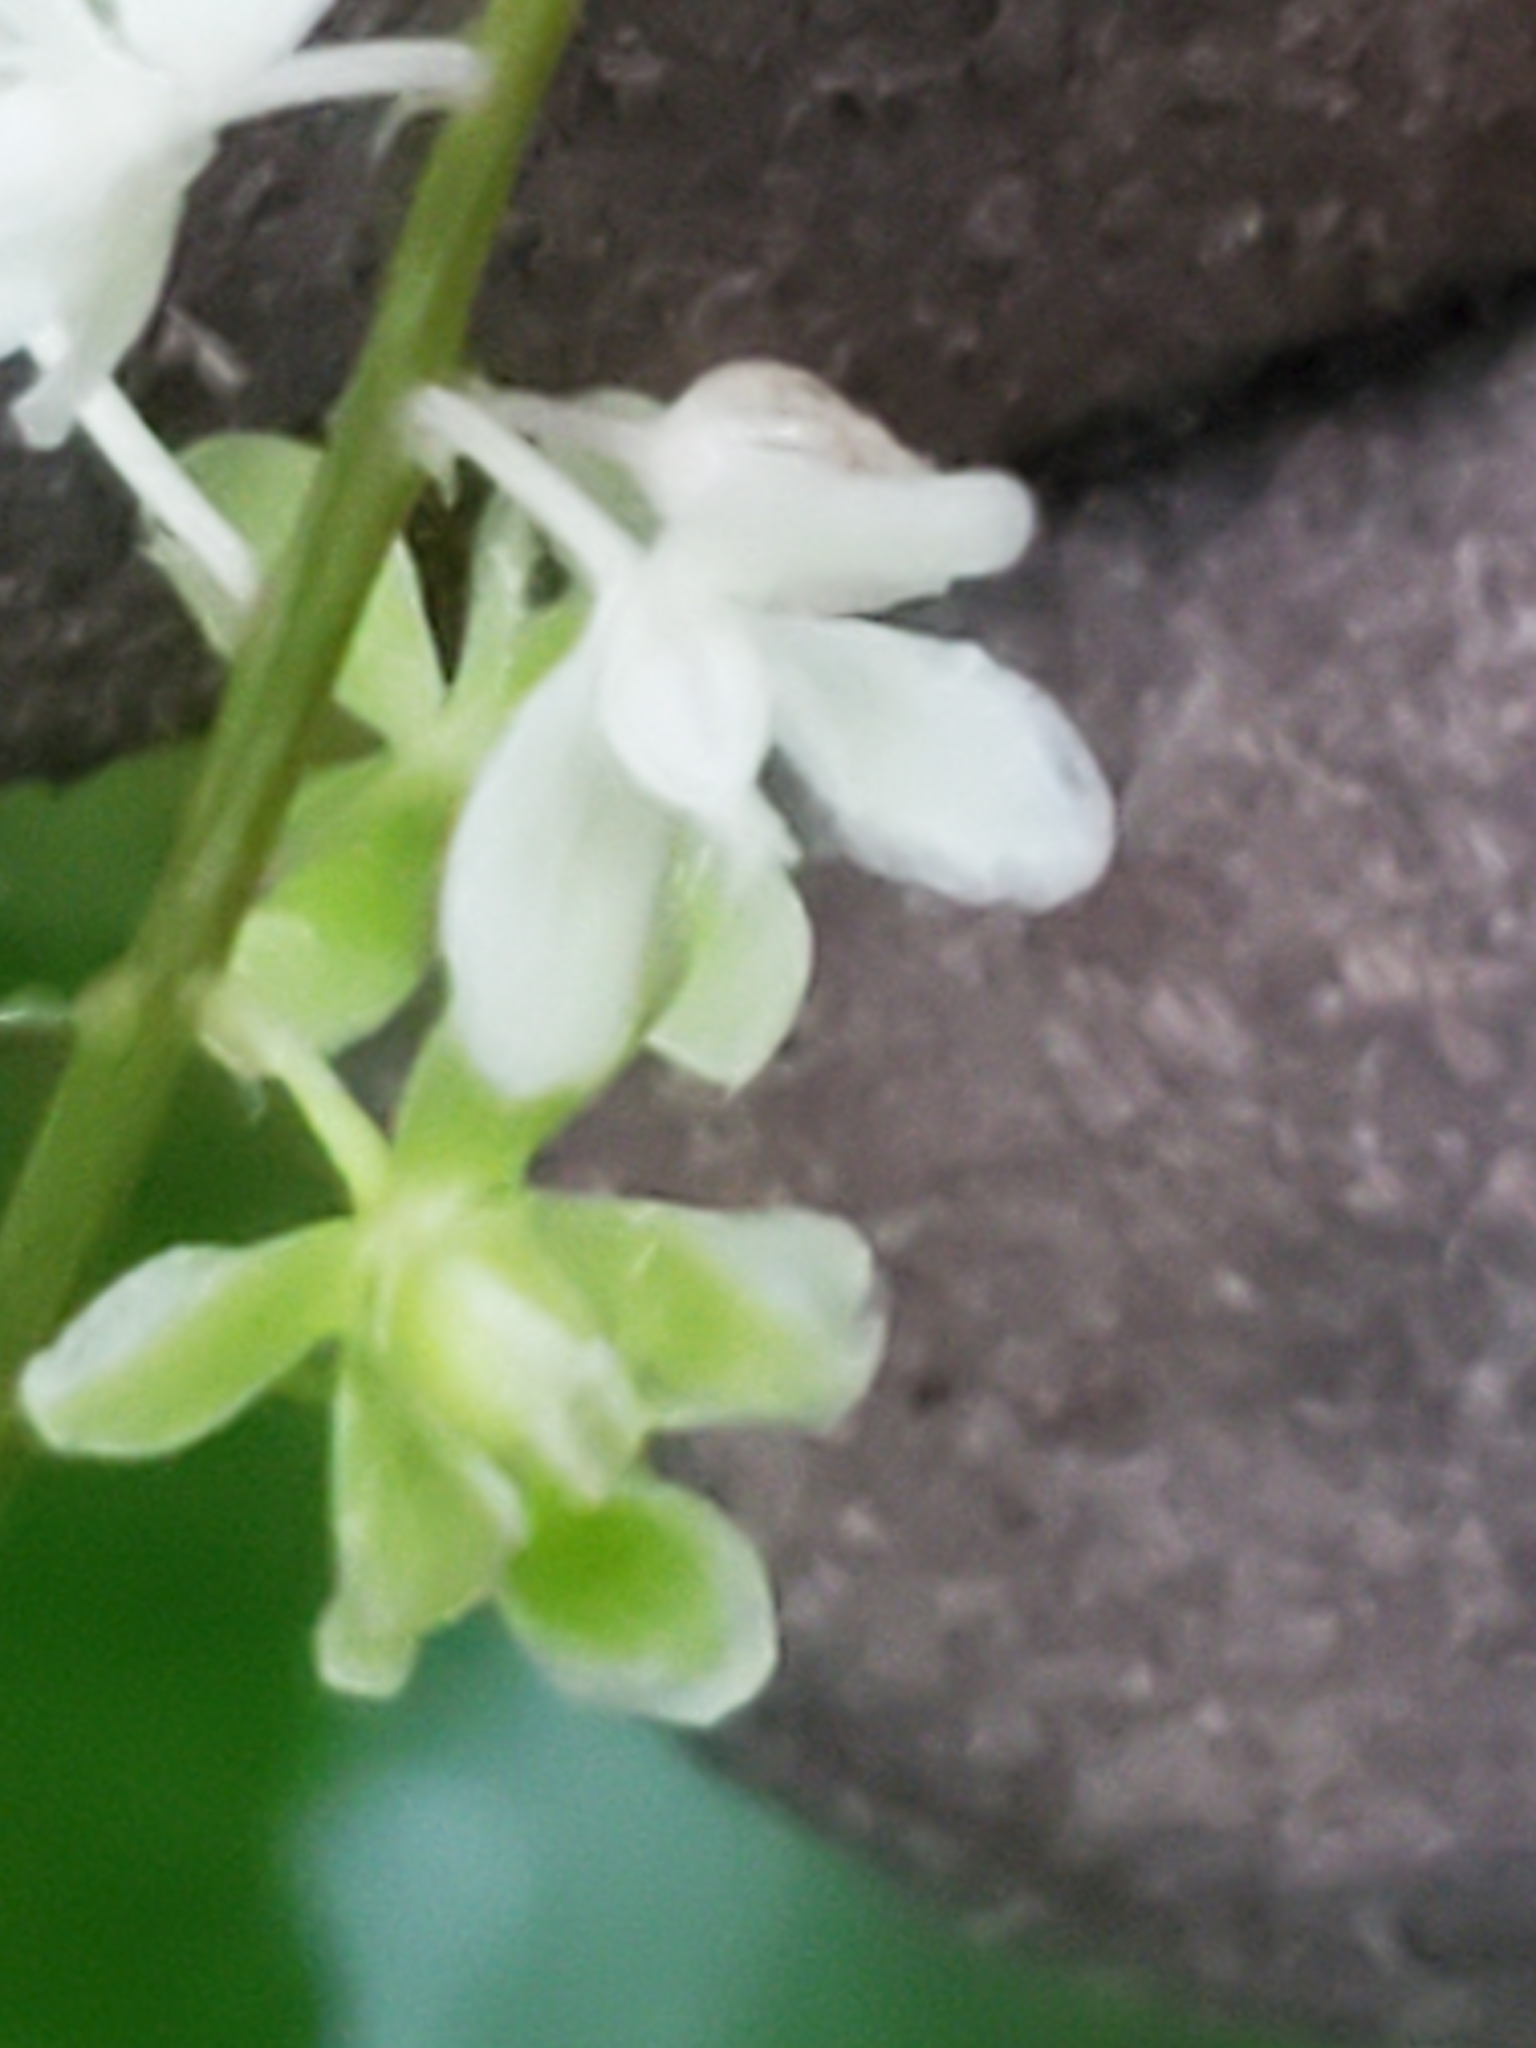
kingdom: Plantae
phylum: Tracheophyta
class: Magnoliopsida
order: Caryophyllales
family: Phytolaccaceae
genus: Rivina
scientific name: Rivina humilis
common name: Rougeplant
